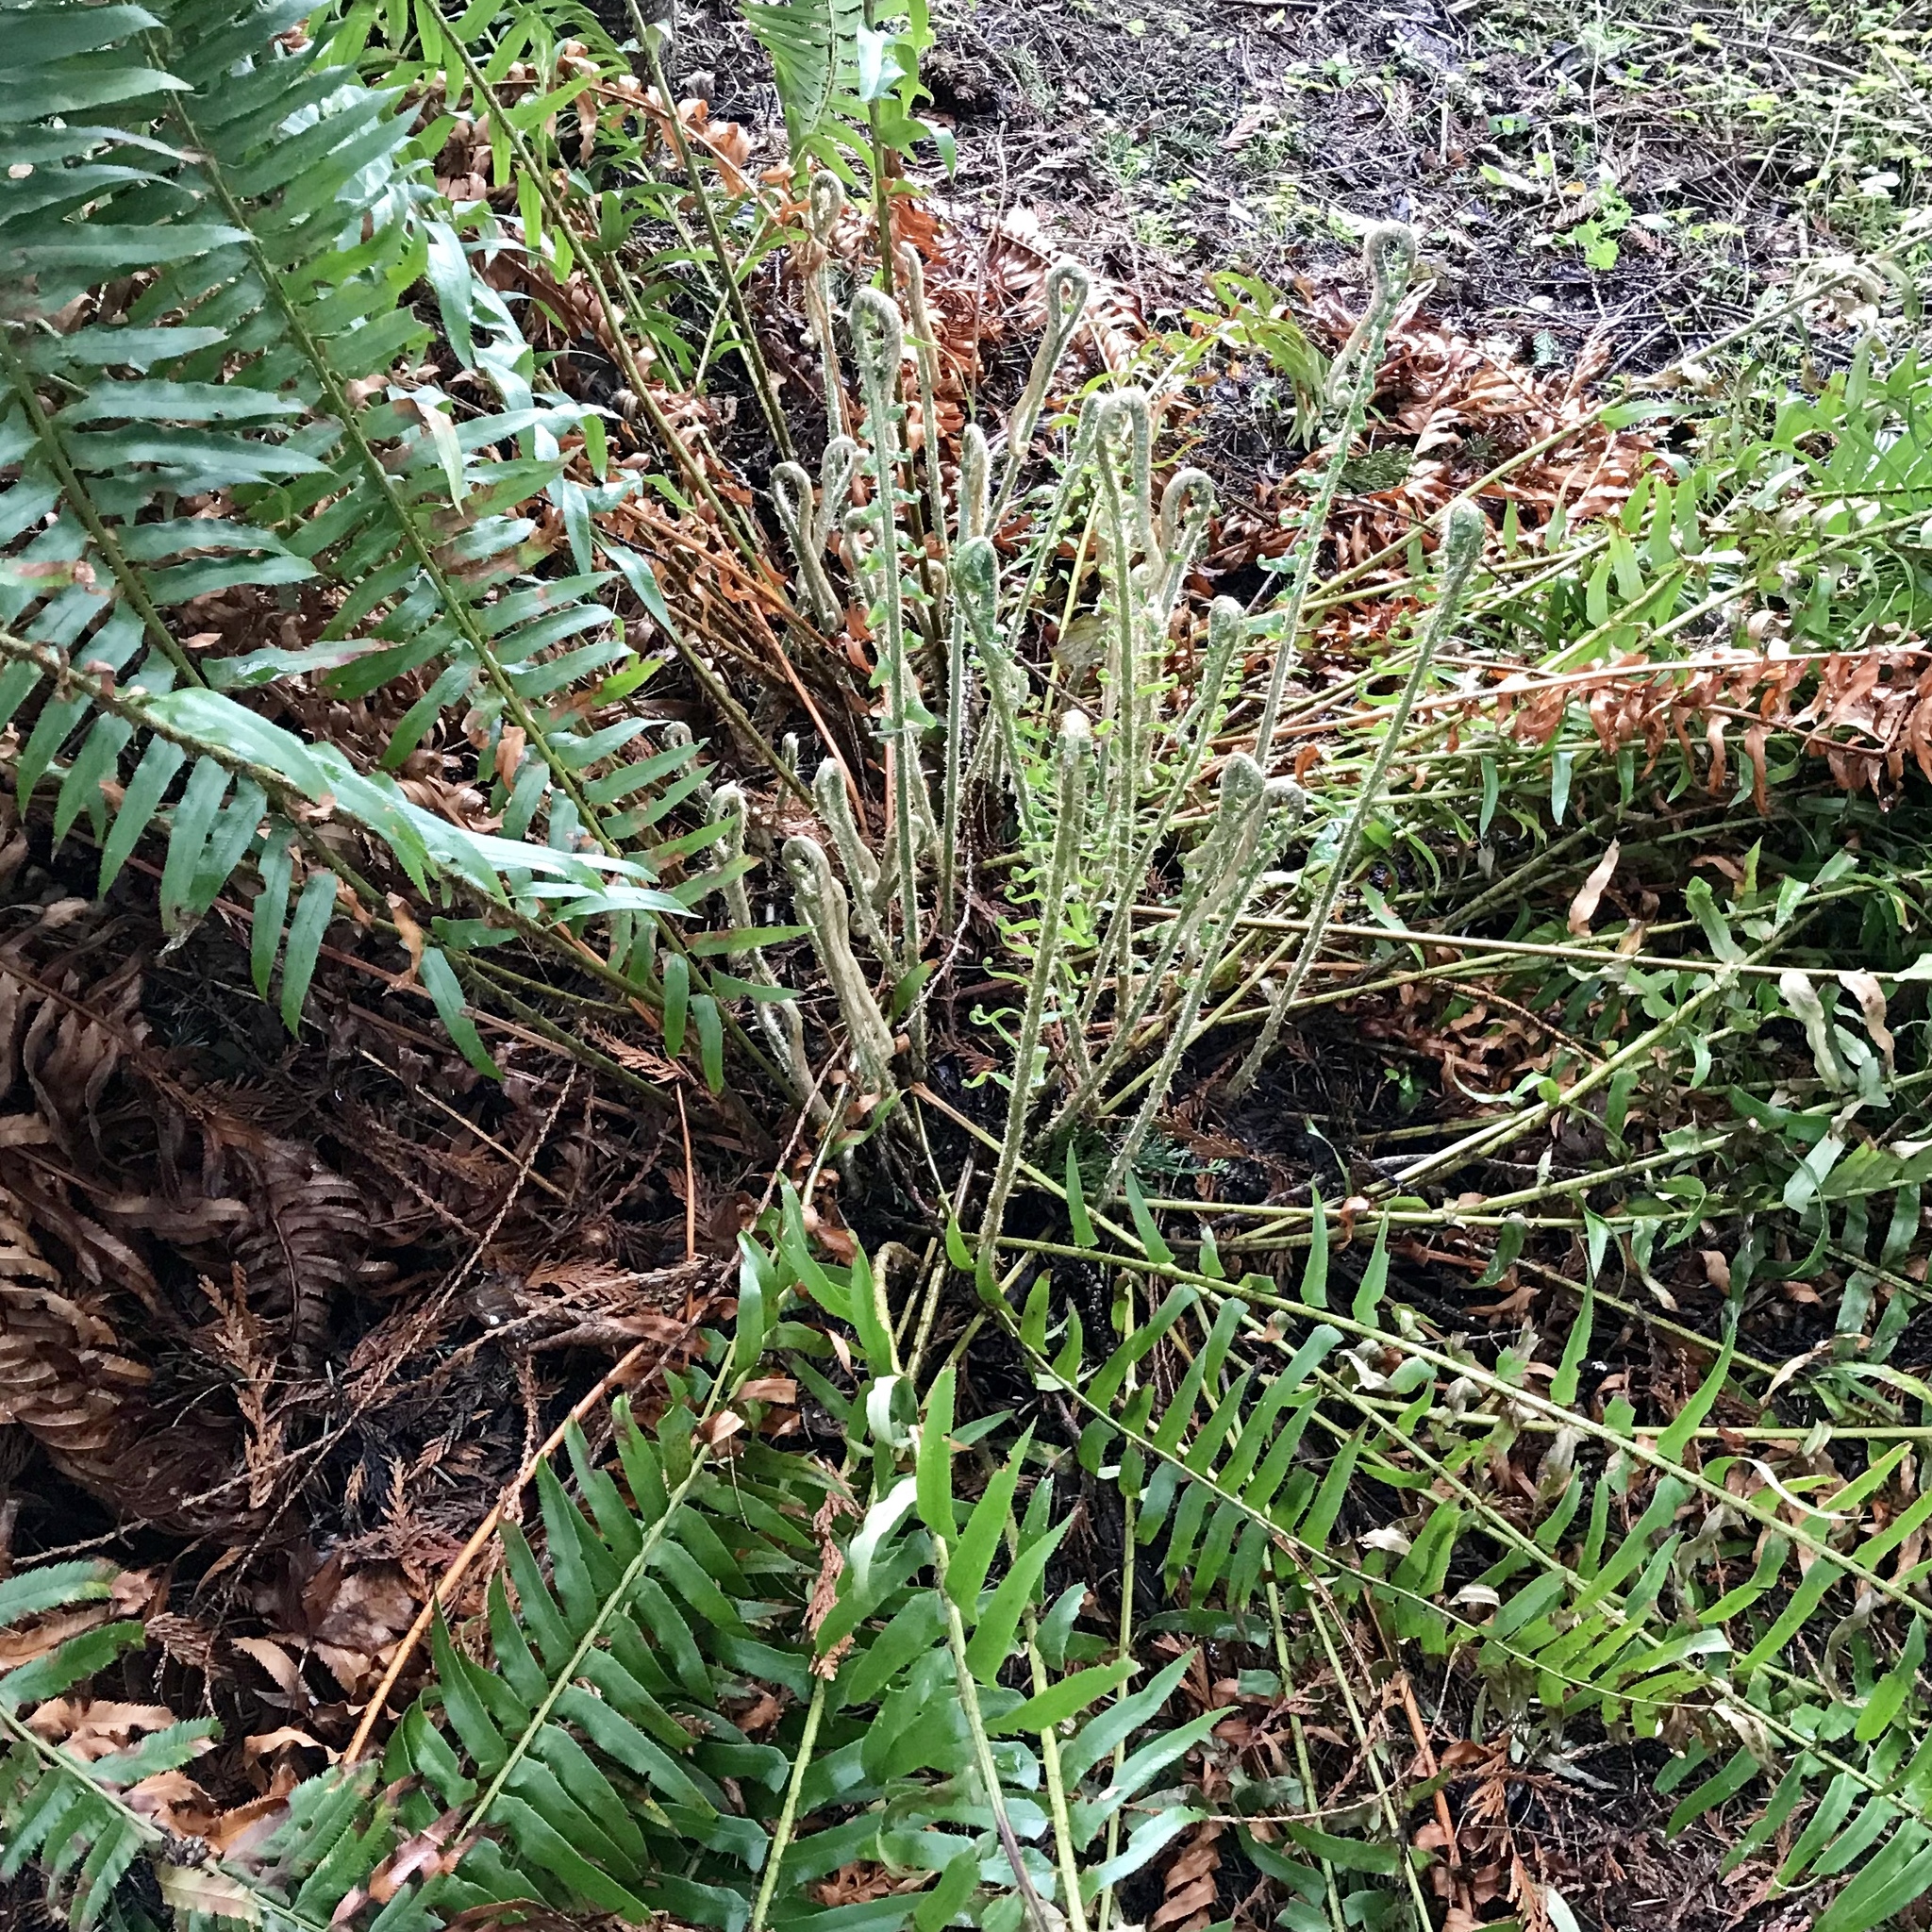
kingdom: Plantae
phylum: Tracheophyta
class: Polypodiopsida
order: Polypodiales
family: Dryopteridaceae
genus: Polystichum
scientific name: Polystichum munitum
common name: Western sword-fern
